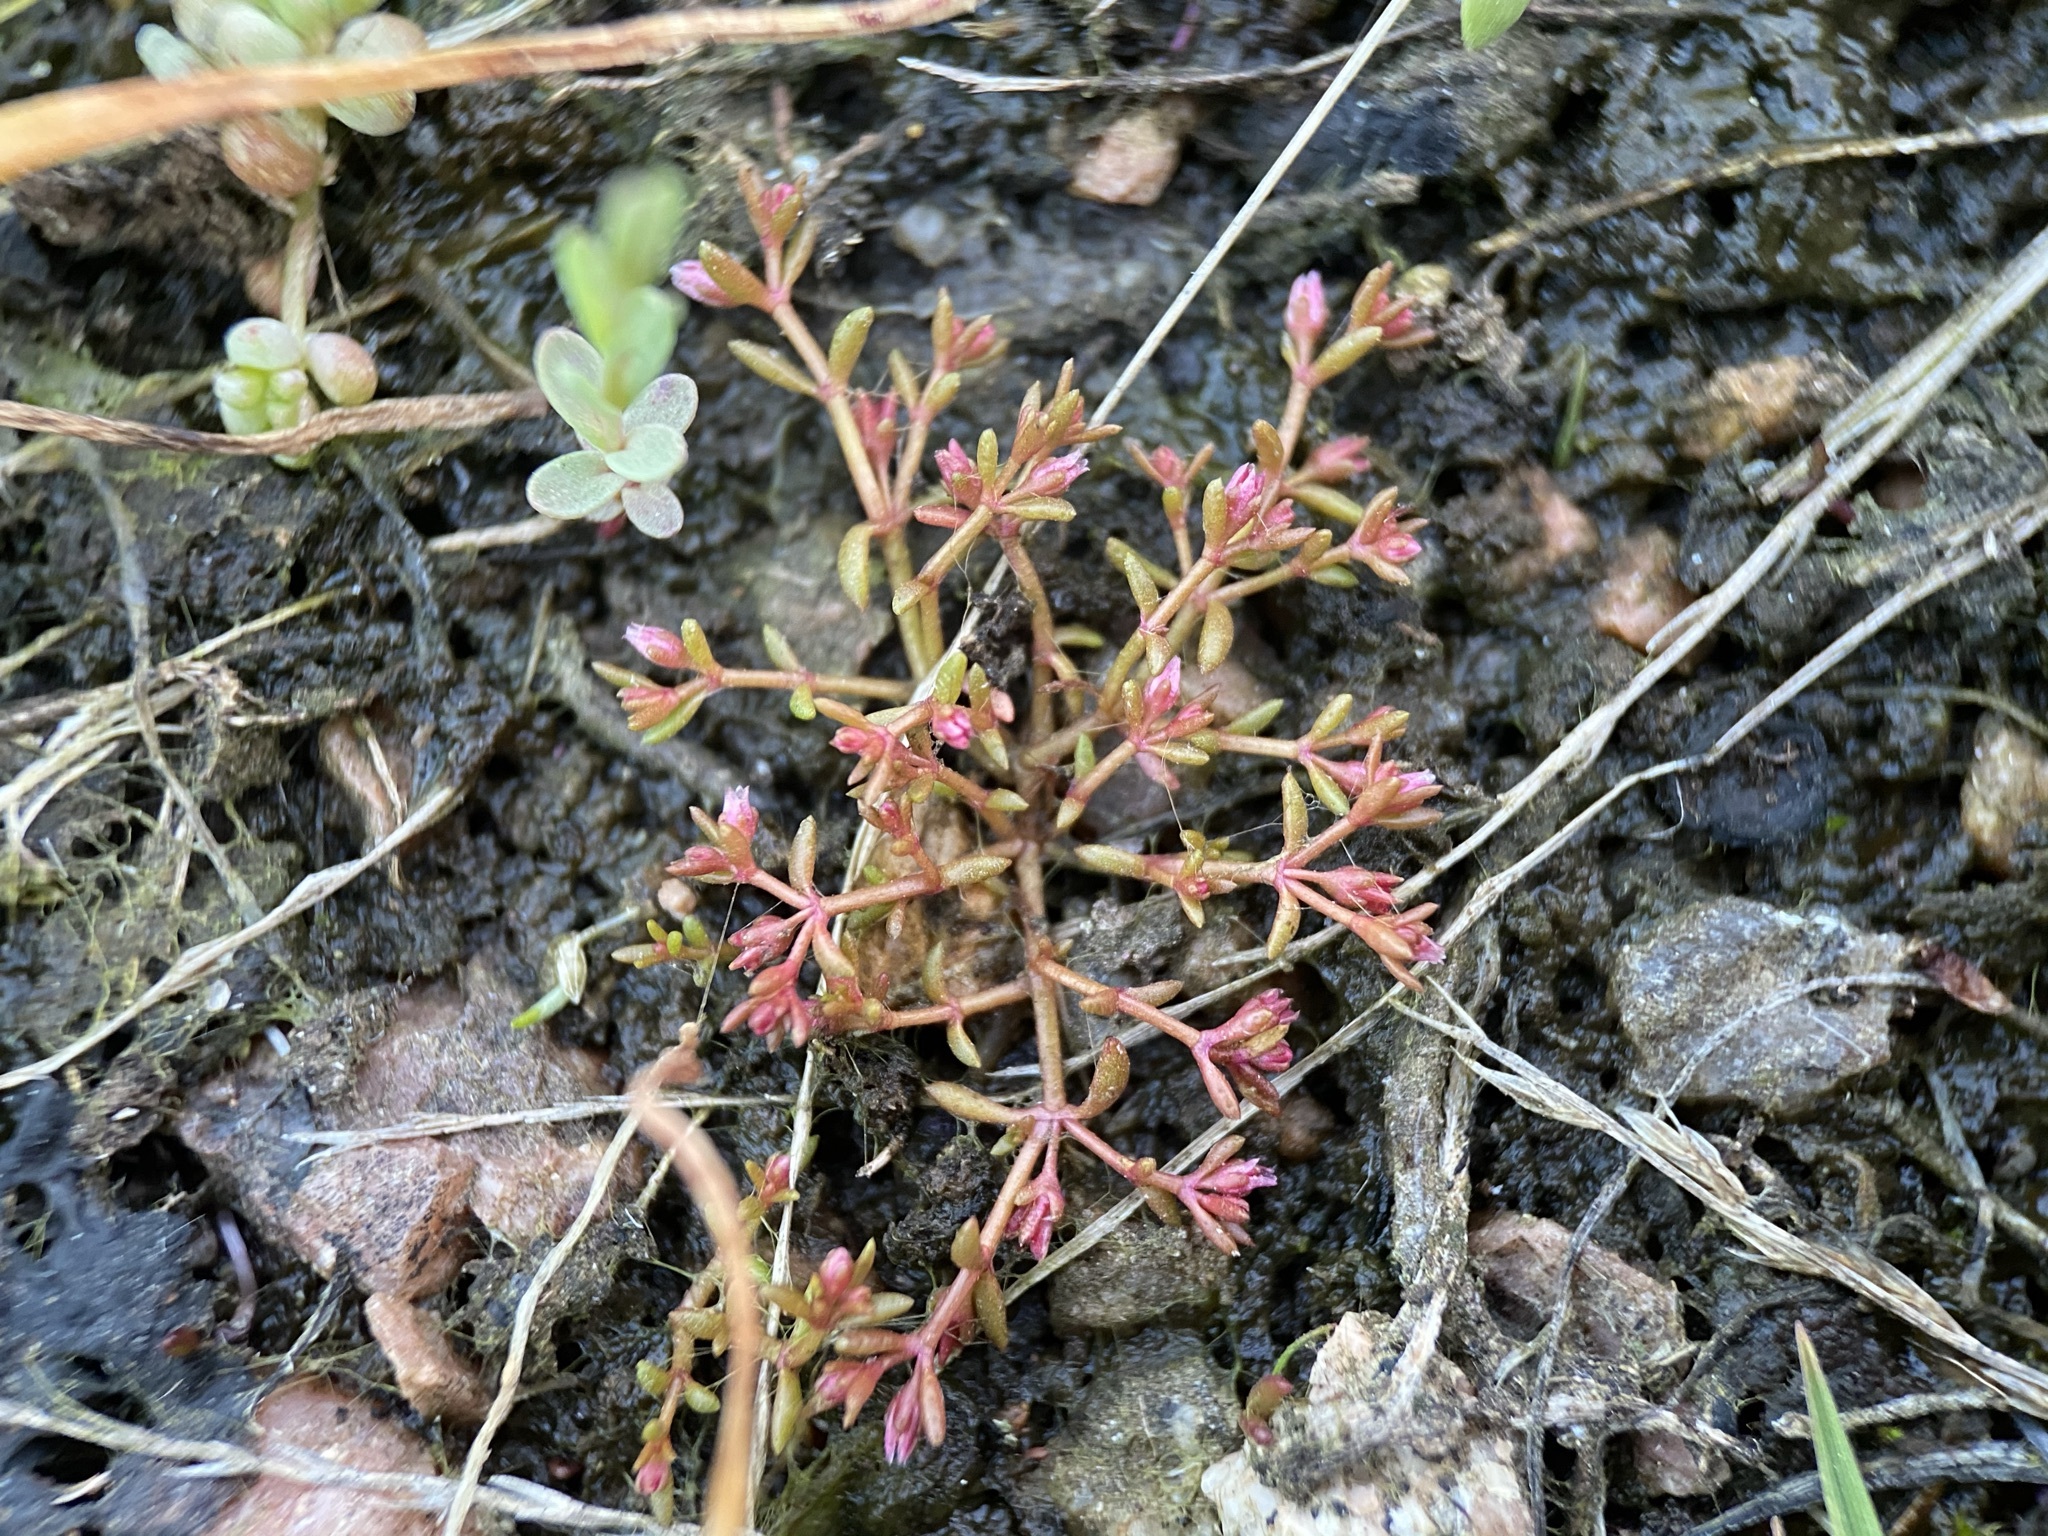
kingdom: Plantae
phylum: Tracheophyta
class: Magnoliopsida
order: Saxifragales
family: Crassulaceae
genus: Crassula
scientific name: Crassula aquatica
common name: Pigmyweed
